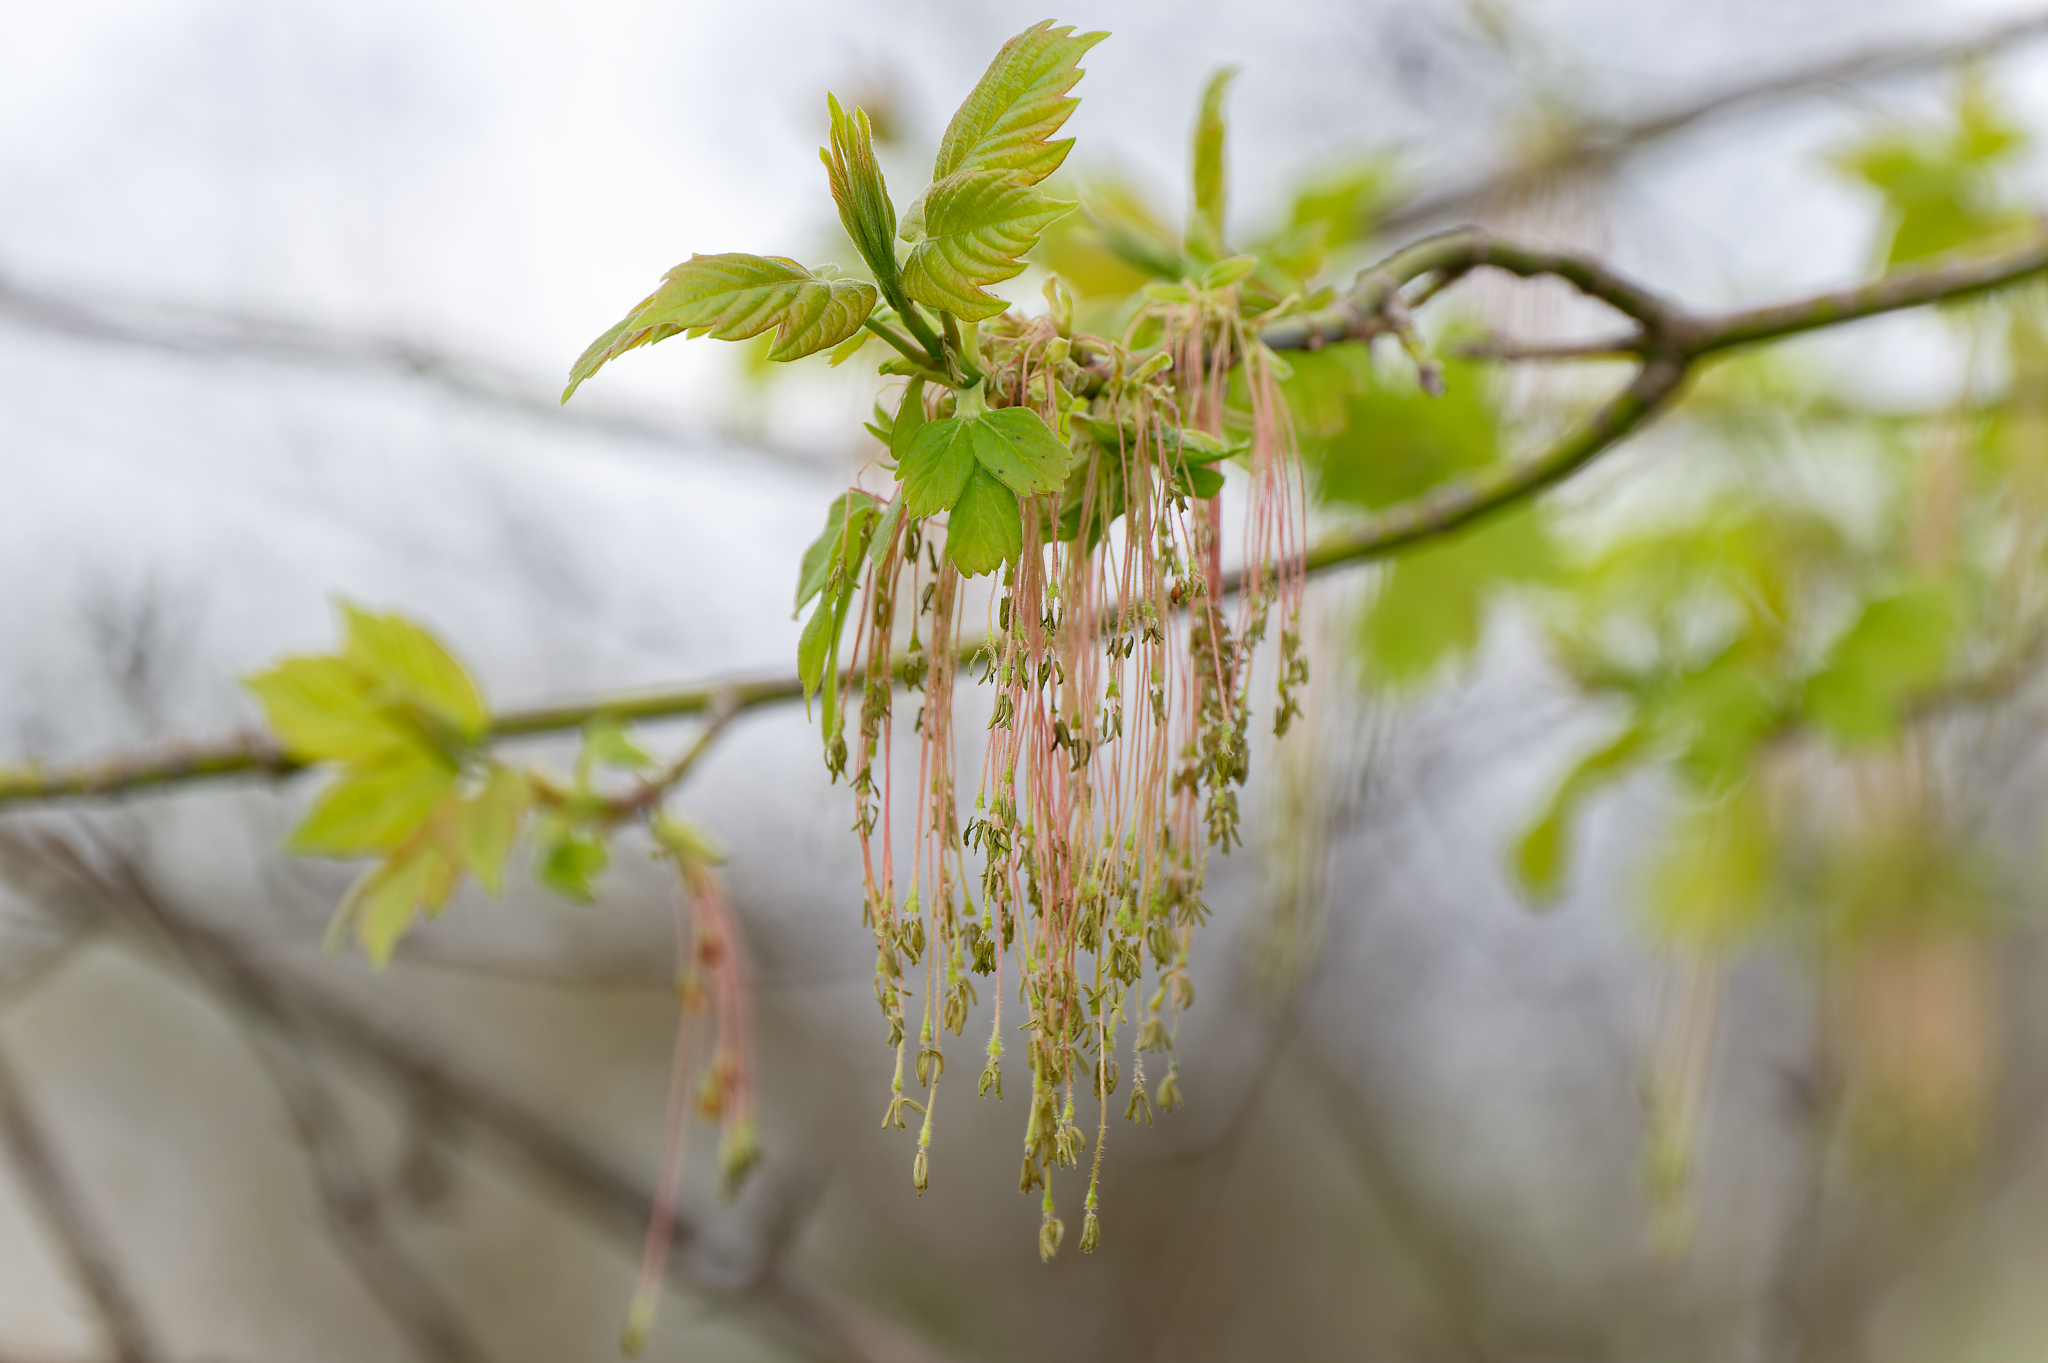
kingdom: Plantae
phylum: Tracheophyta
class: Magnoliopsida
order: Sapindales
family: Sapindaceae
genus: Acer
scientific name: Acer negundo
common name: Ashleaf maple
